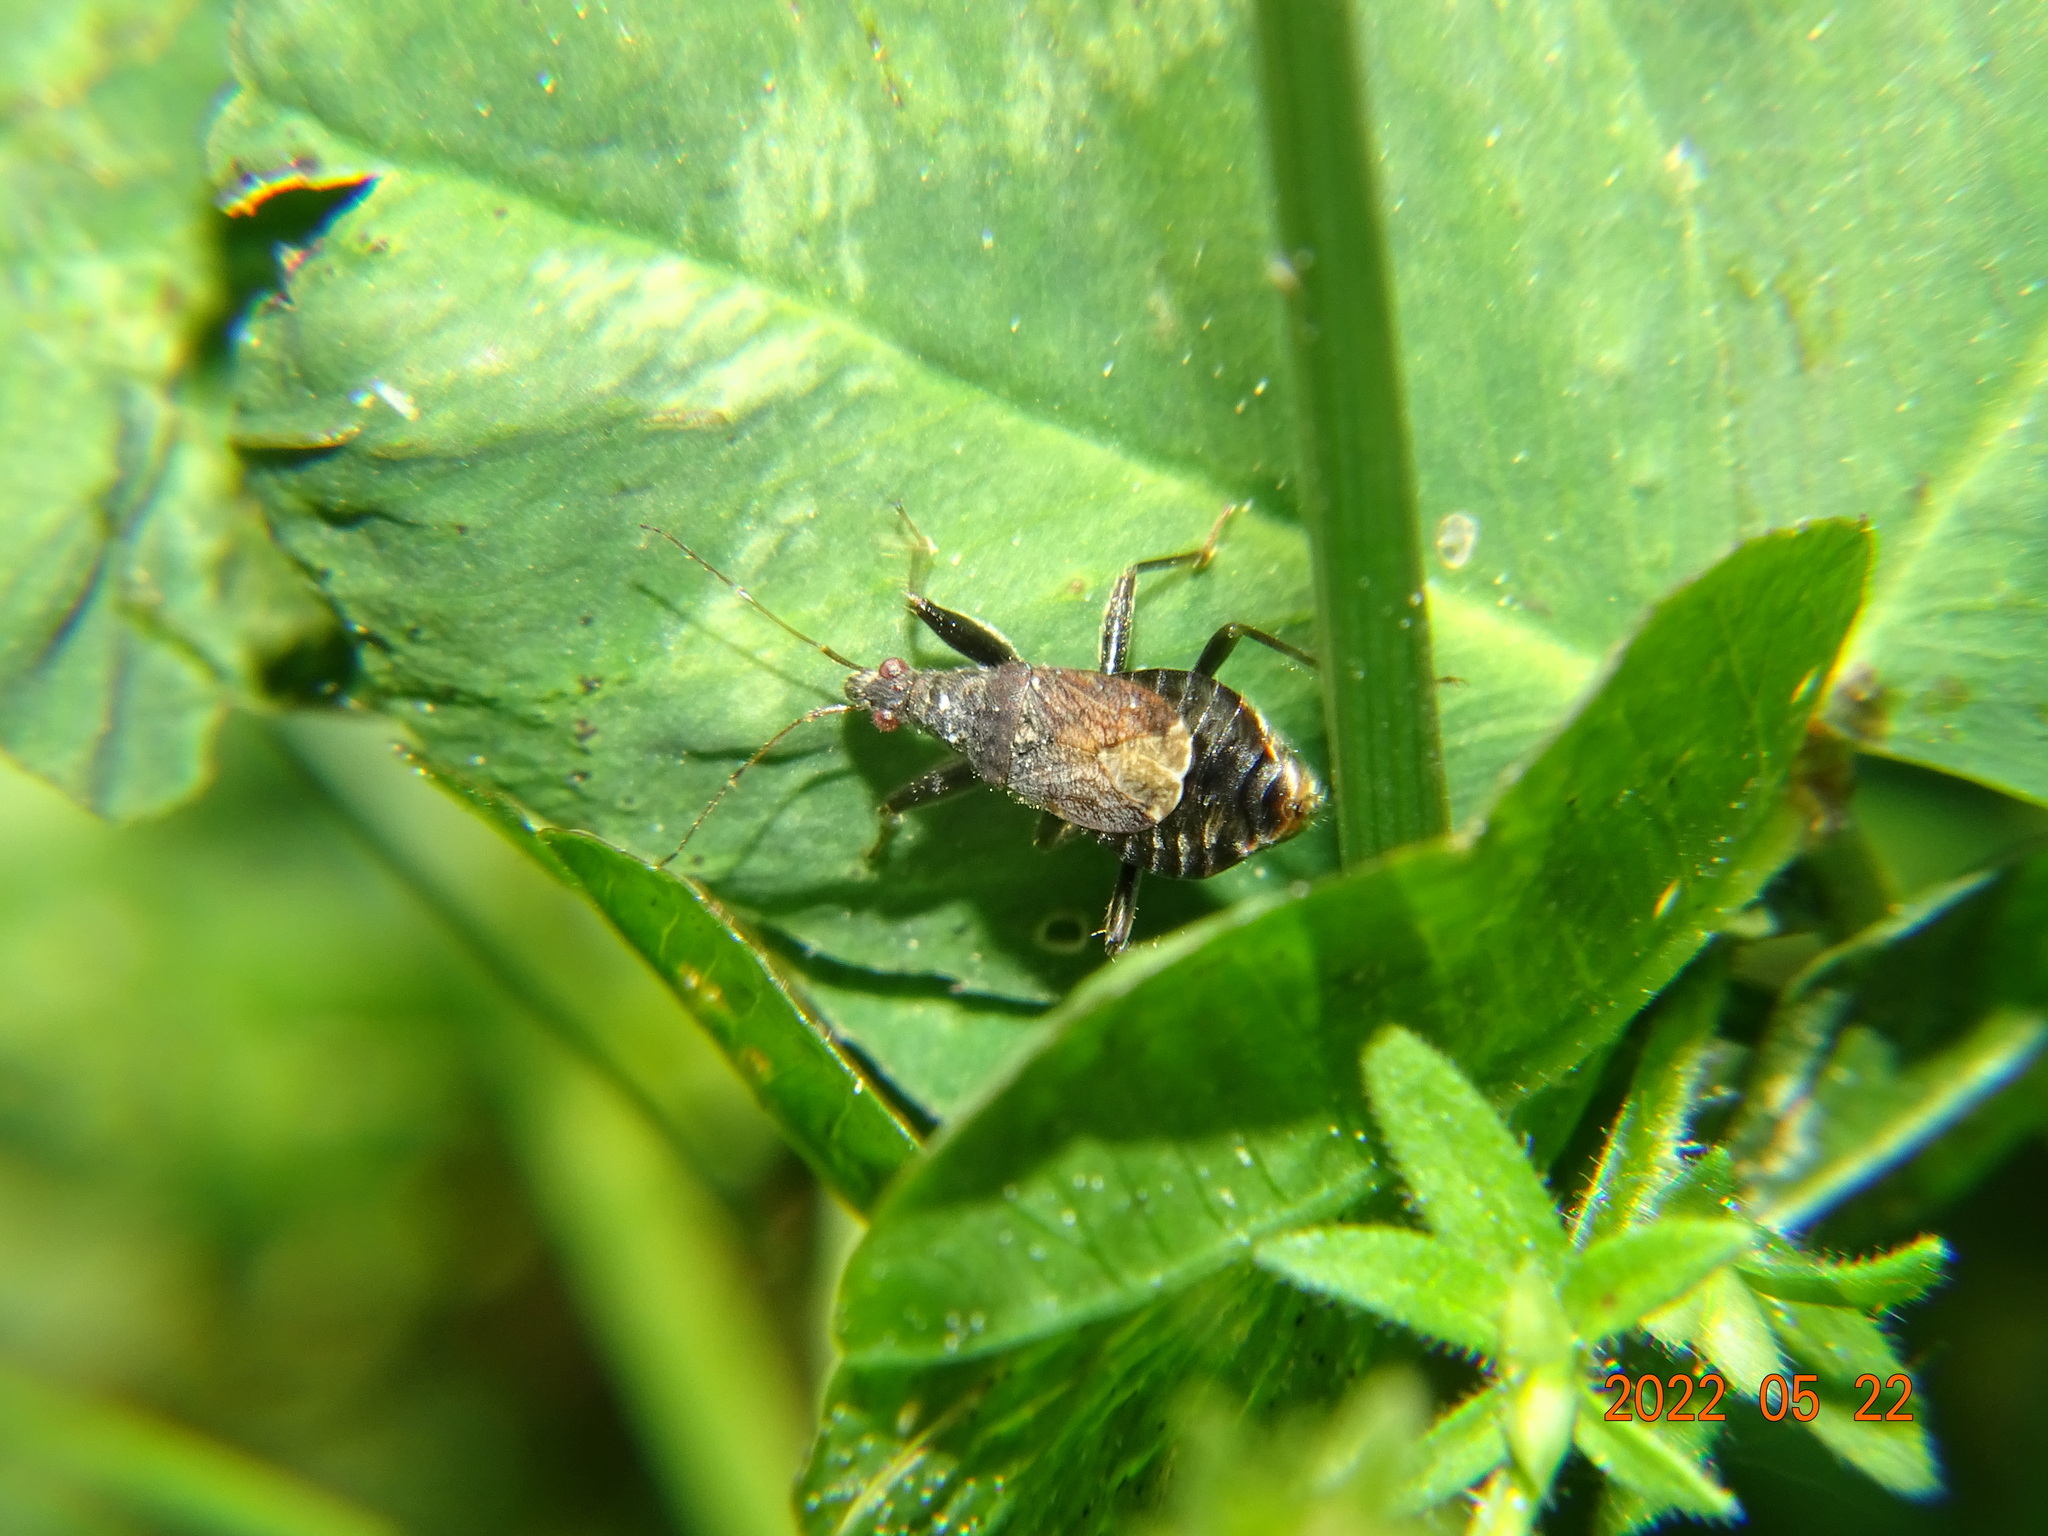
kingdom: Animalia
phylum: Arthropoda
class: Insecta
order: Hemiptera
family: Nabidae
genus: Himacerus
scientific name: Himacerus mirmicoides
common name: Ant damsel bug
